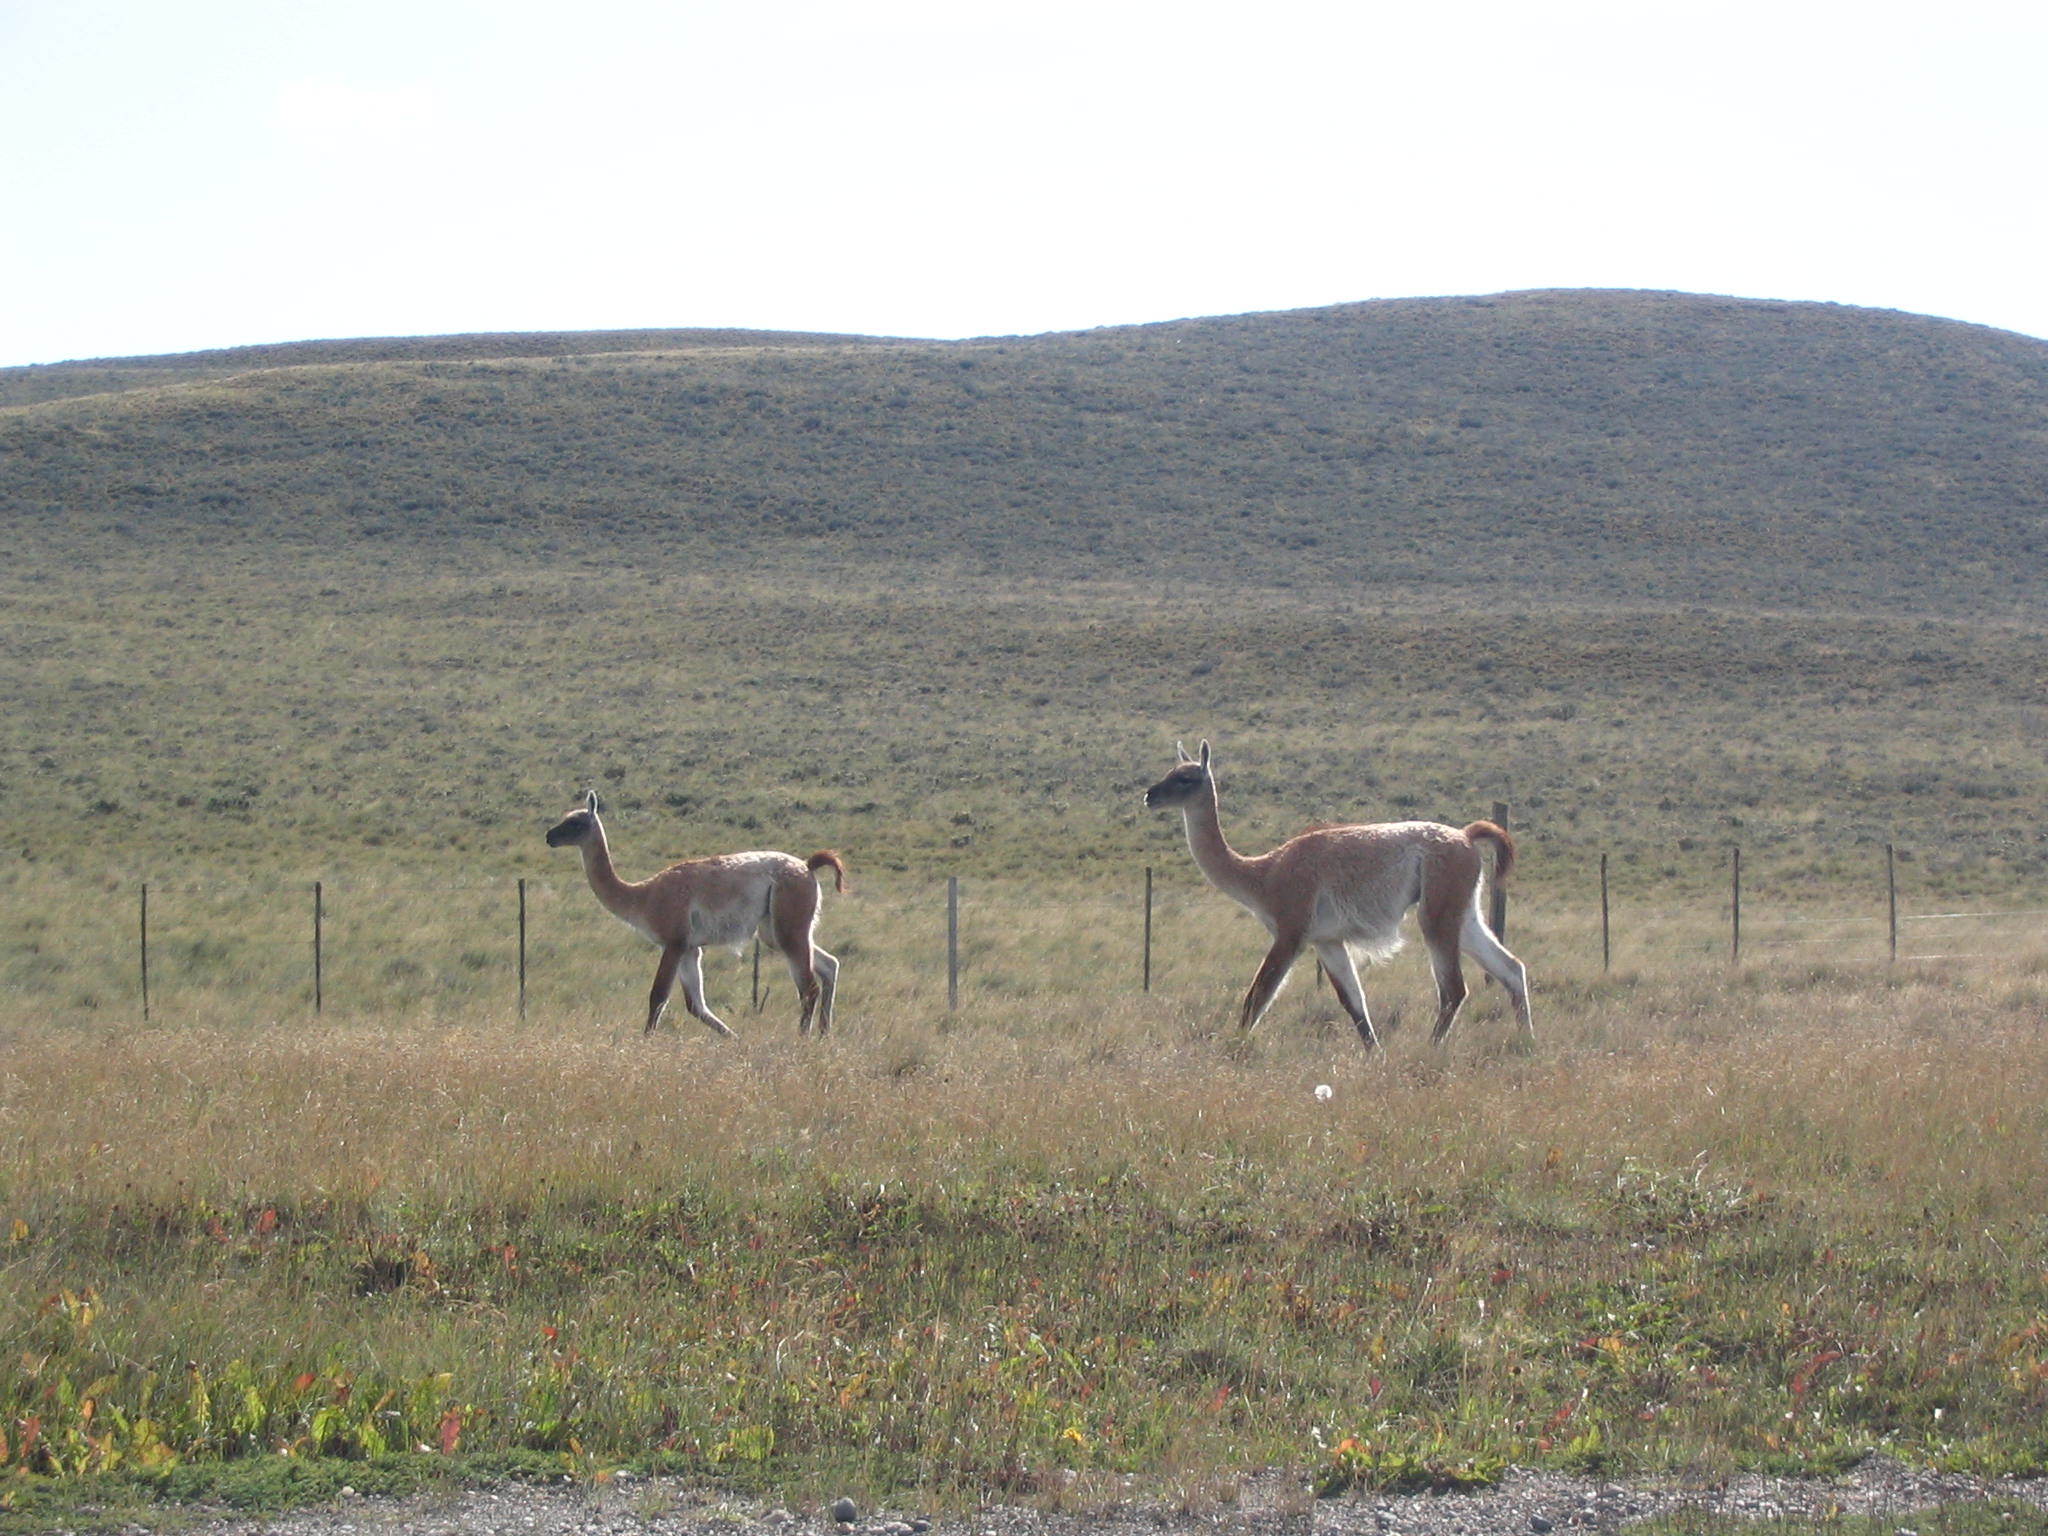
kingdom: Animalia
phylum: Chordata
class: Mammalia
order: Artiodactyla
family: Camelidae
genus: Lama
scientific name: Lama glama
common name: Llama
